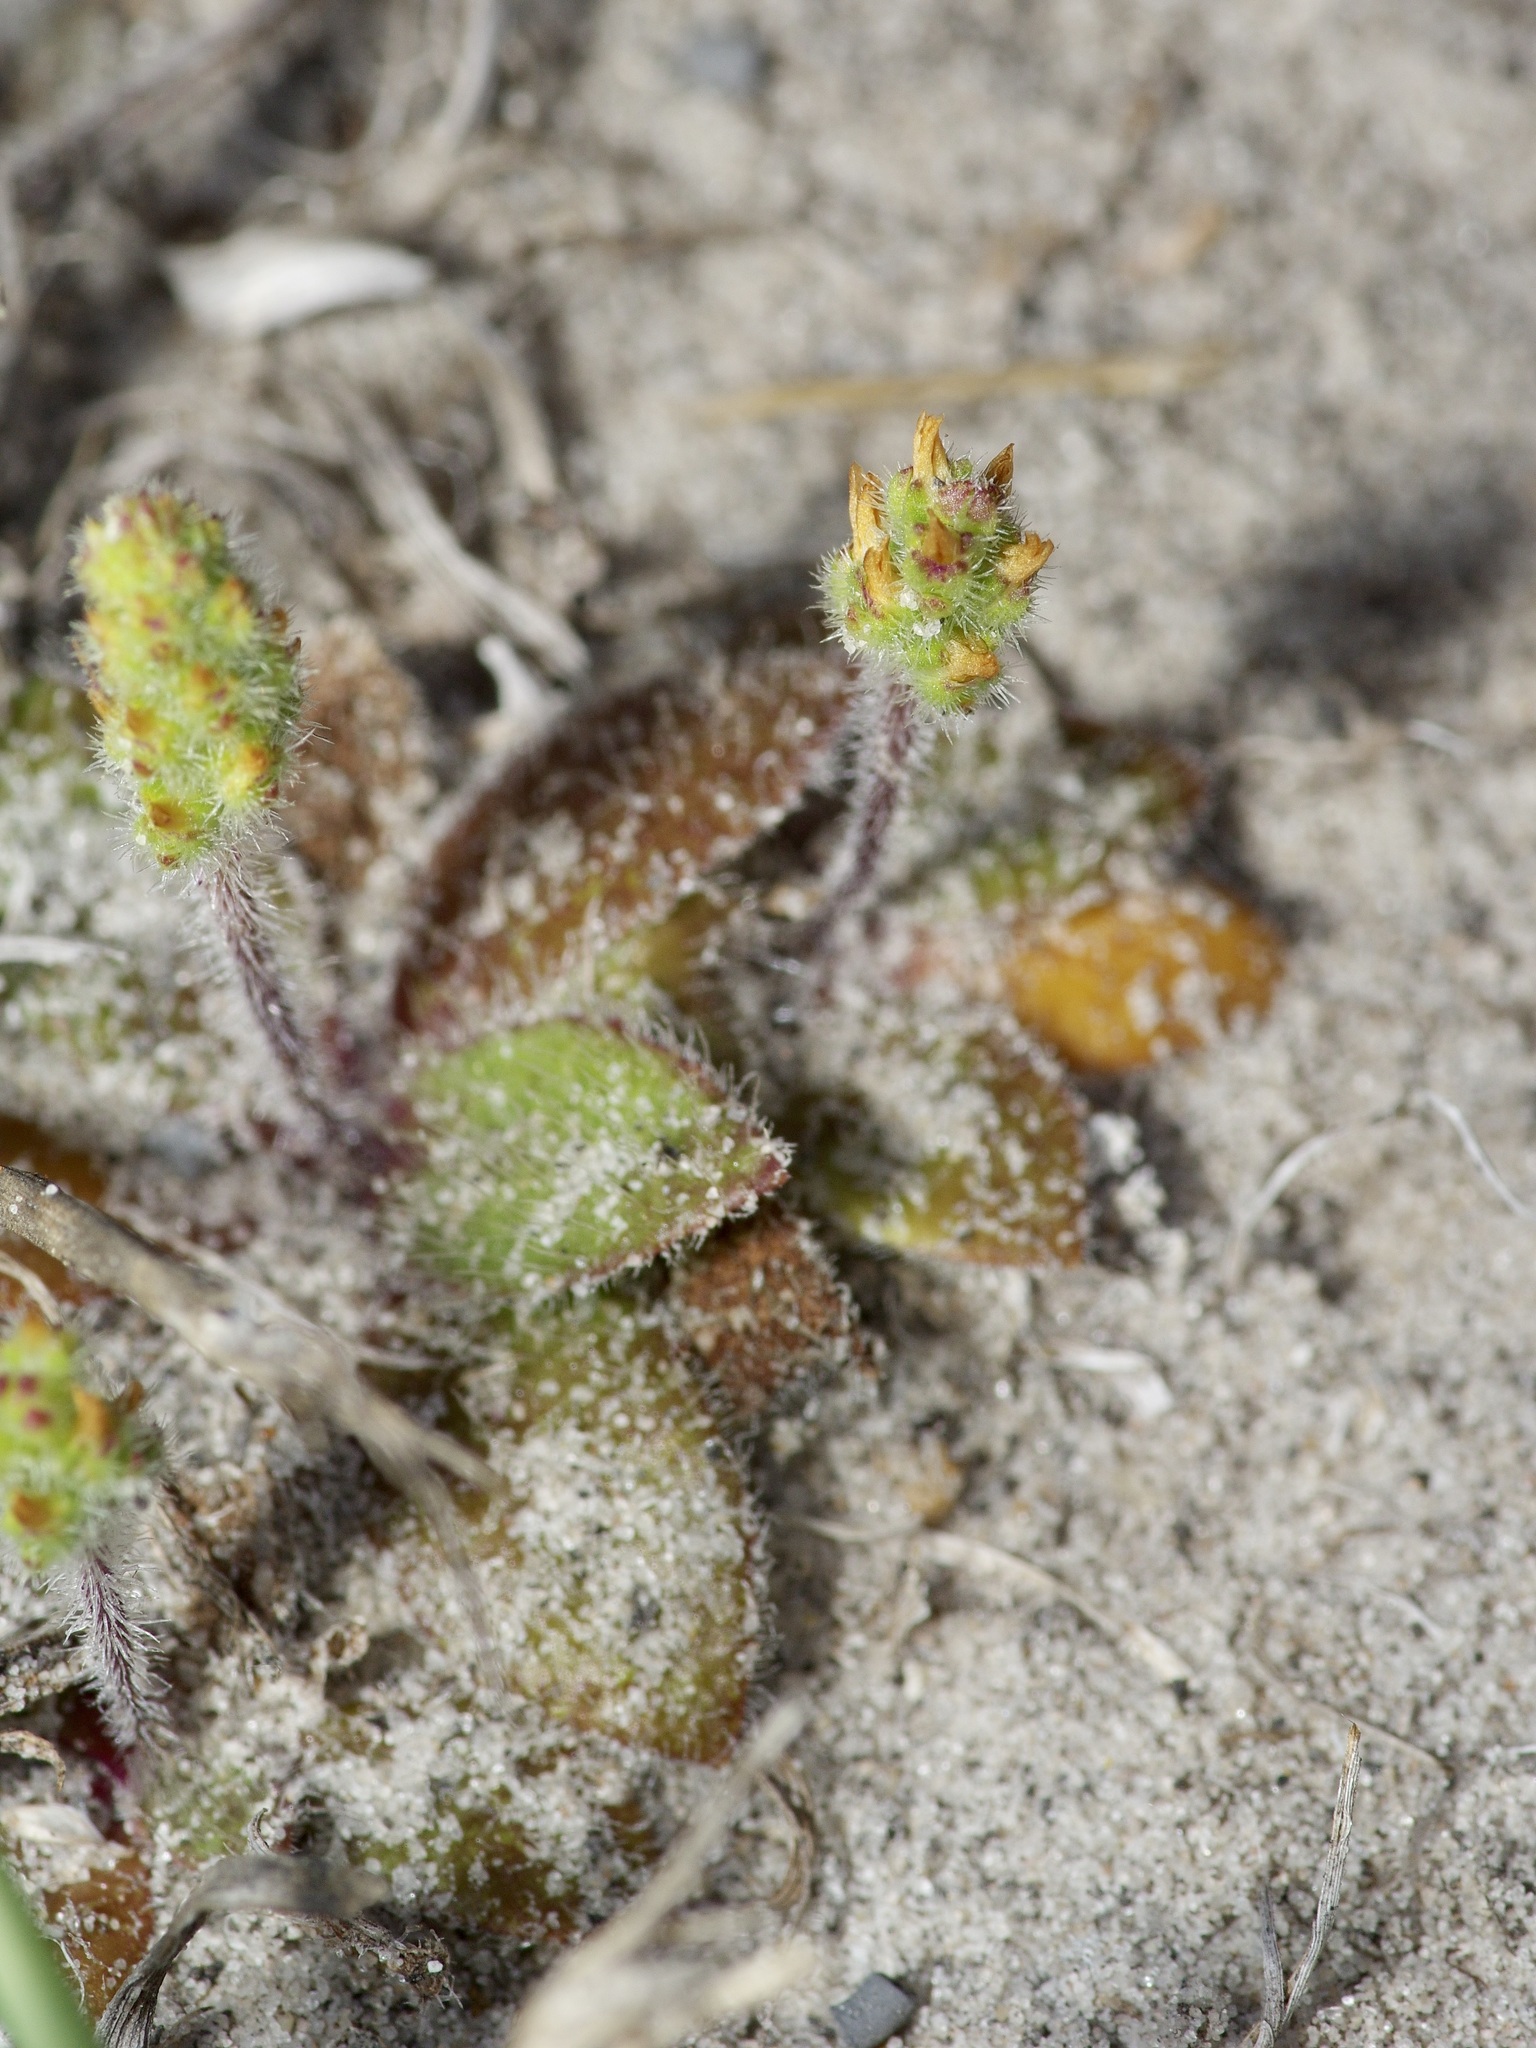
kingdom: Plantae
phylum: Tracheophyta
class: Magnoliopsida
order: Lamiales
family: Plantaginaceae
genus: Plantago
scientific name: Plantago virginica
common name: Hoary plantain
